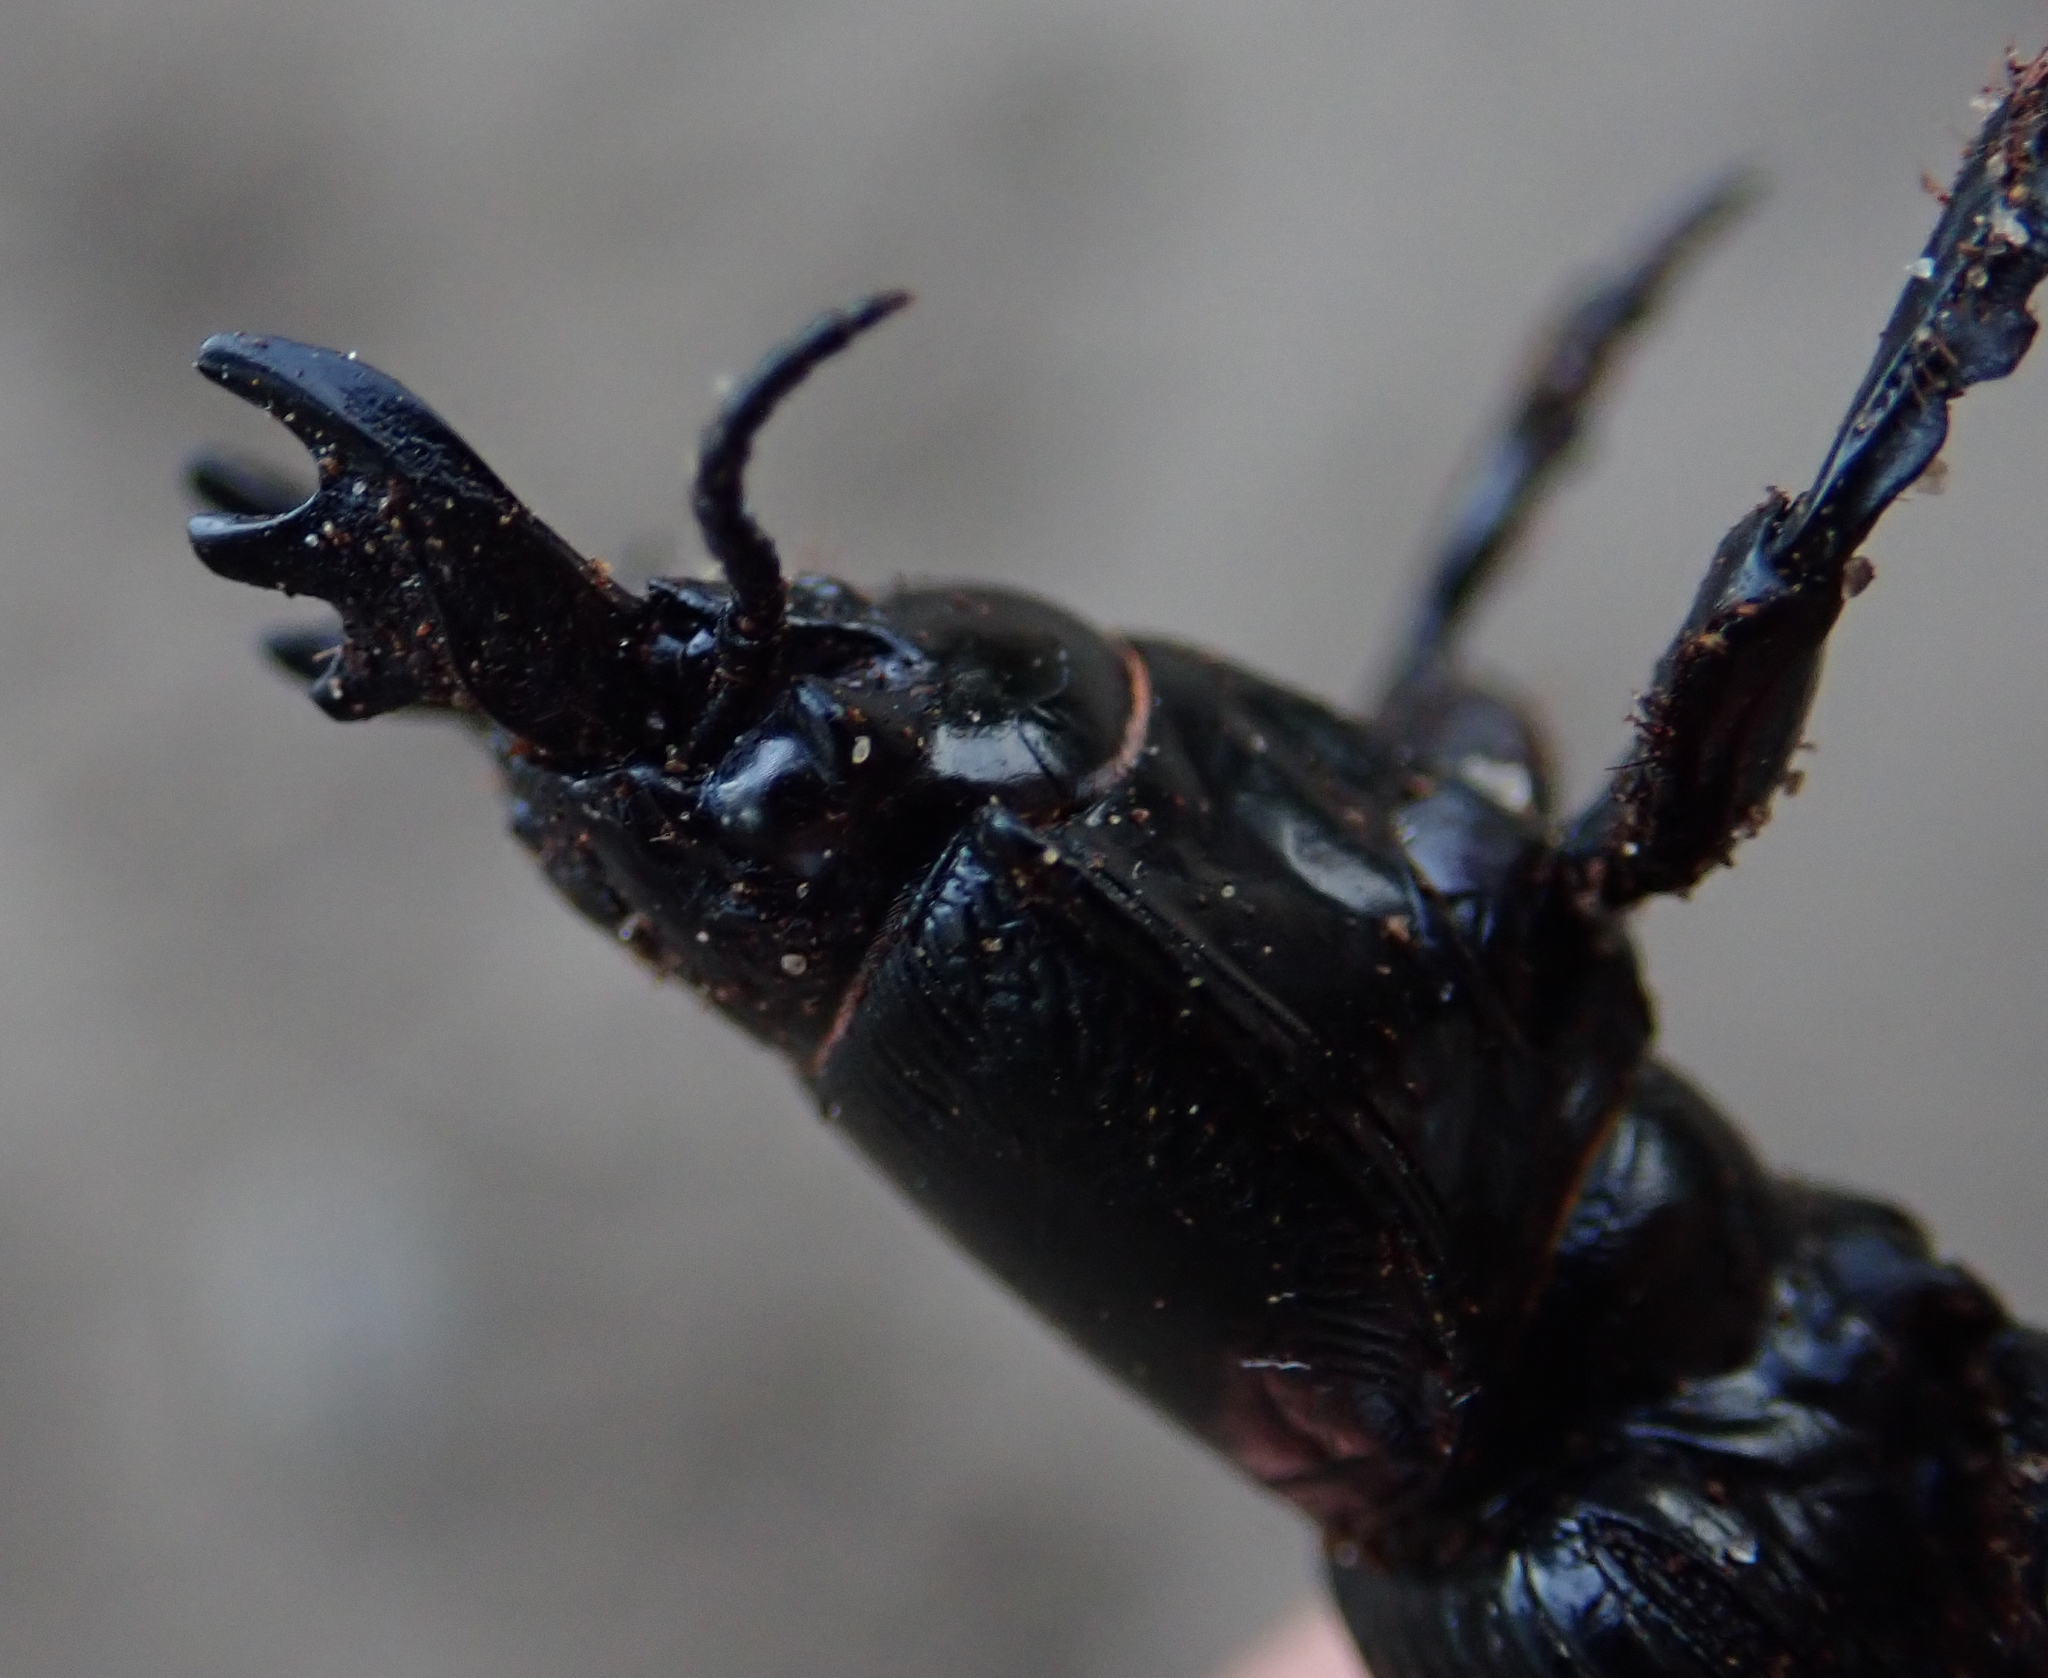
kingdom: Animalia
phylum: Arthropoda
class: Insecta
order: Coleoptera
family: Carabidae
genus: Passalidius
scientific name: Passalidius fortipes
